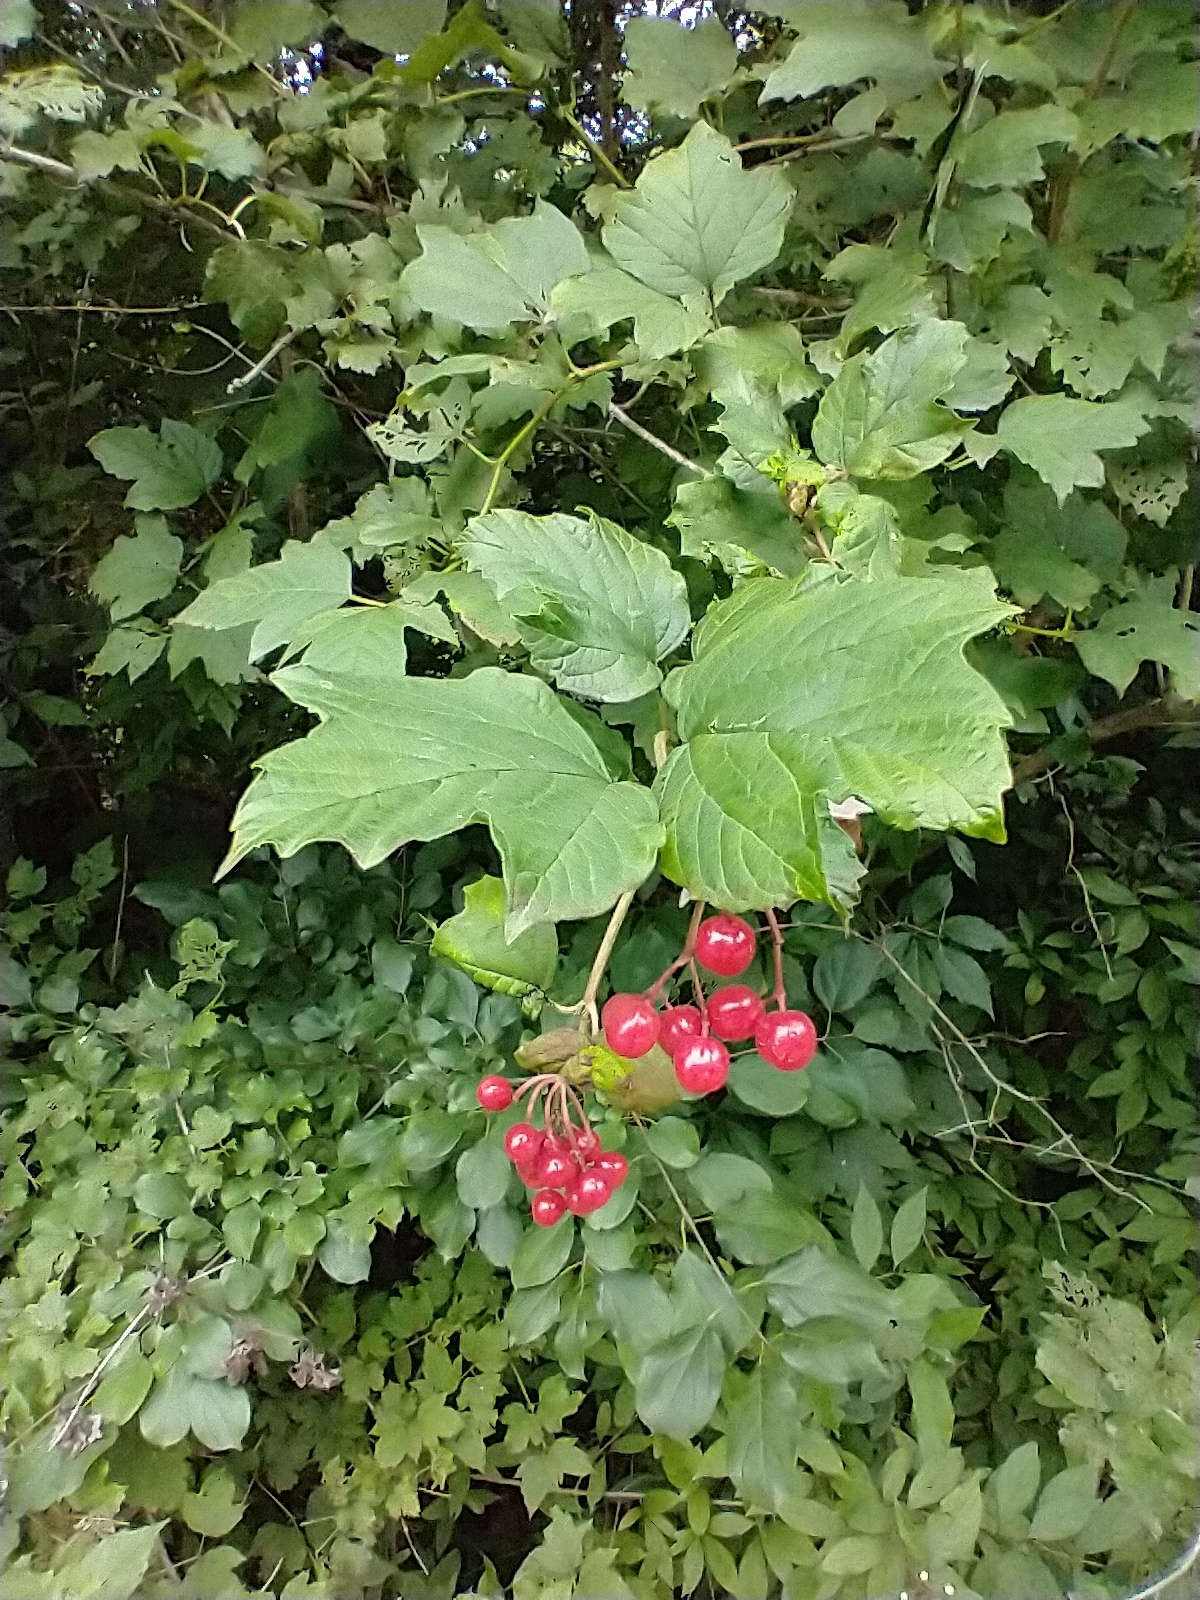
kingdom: Plantae
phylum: Tracheophyta
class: Magnoliopsida
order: Dipsacales
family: Viburnaceae
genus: Viburnum
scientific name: Viburnum opulus
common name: Guelder-rose
